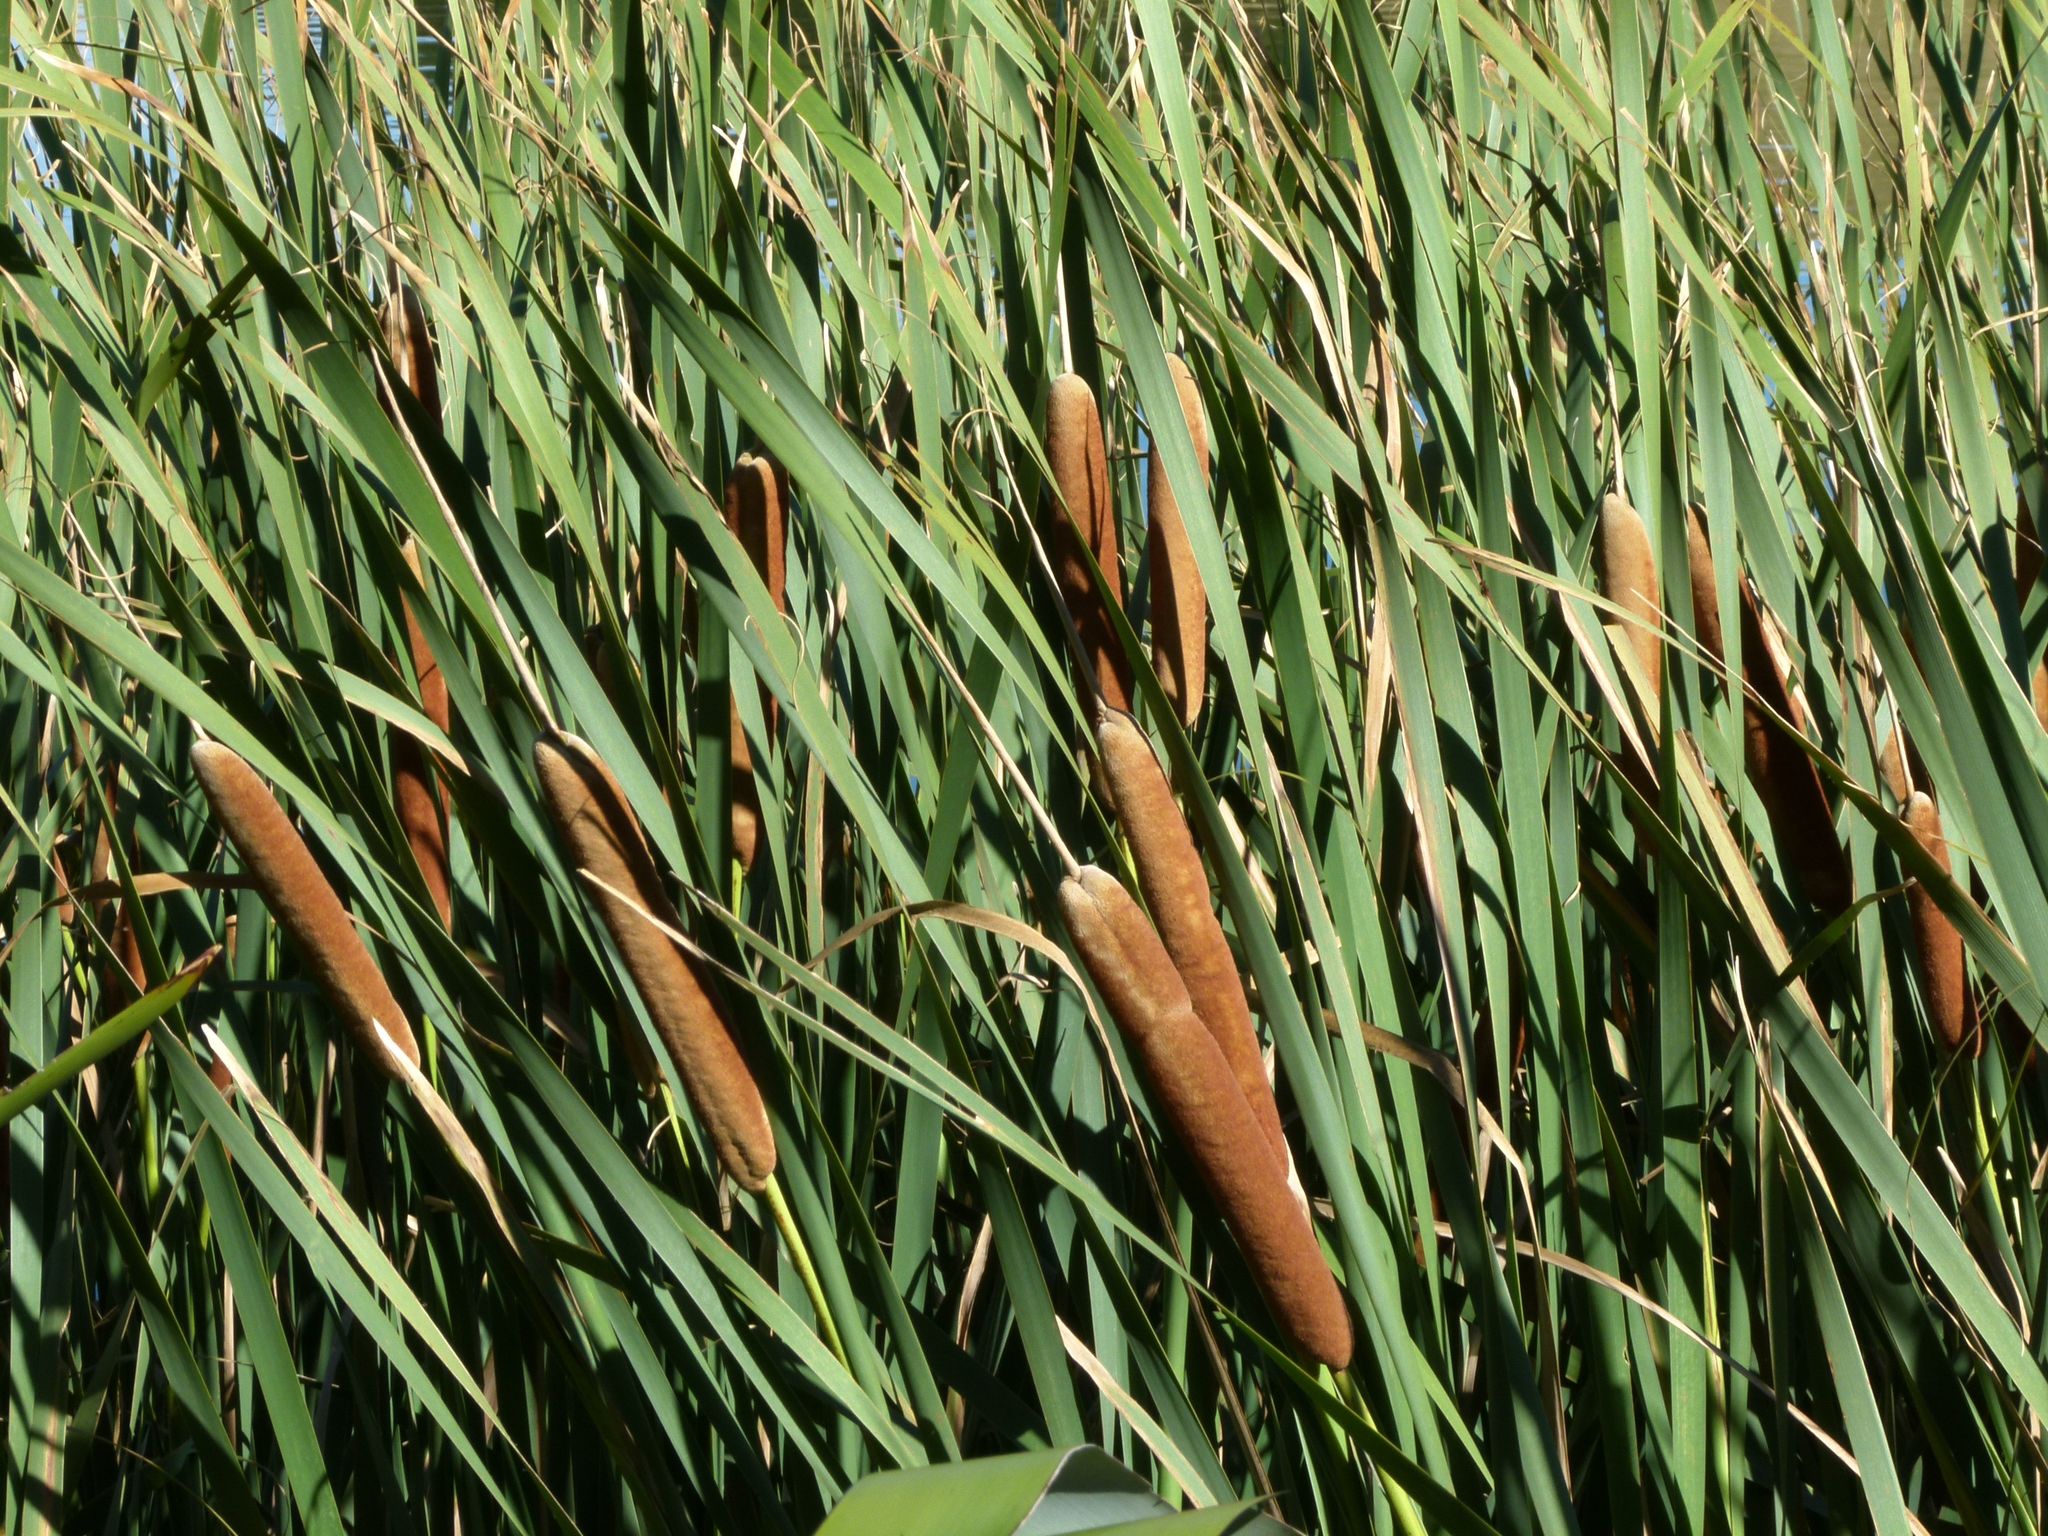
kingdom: Plantae
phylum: Tracheophyta
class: Liliopsida
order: Poales
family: Typhaceae
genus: Typha
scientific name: Typha orientalis
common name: Bullrush
